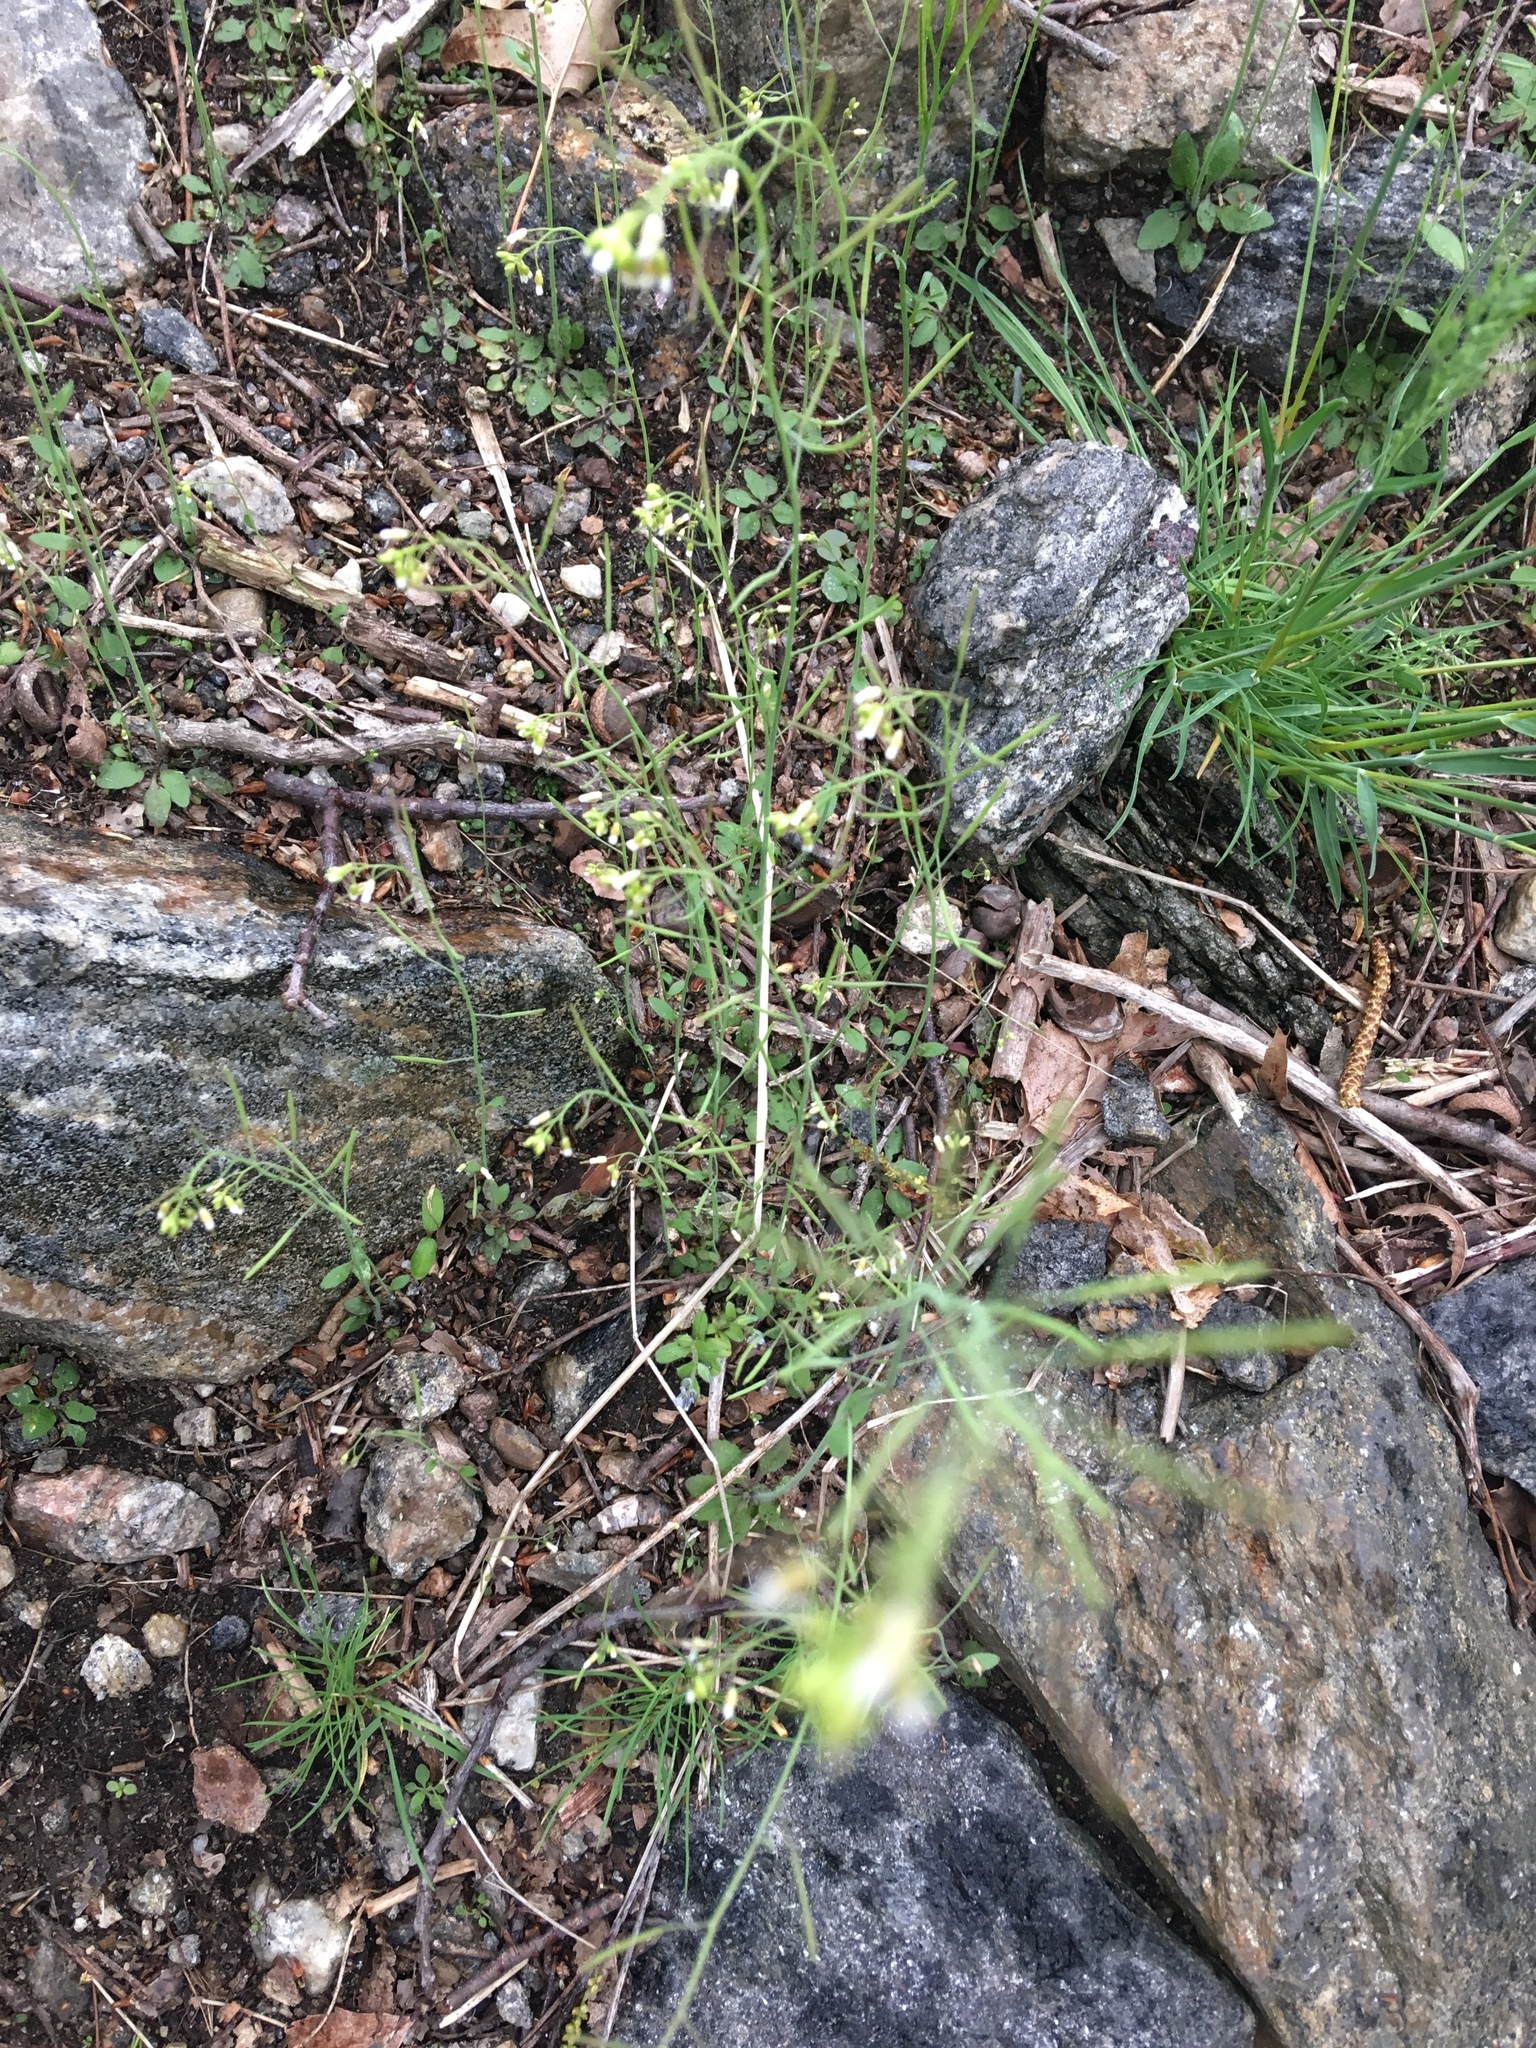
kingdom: Plantae
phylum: Tracheophyta
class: Magnoliopsida
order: Brassicales
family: Brassicaceae
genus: Arabidopsis
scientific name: Arabidopsis thaliana
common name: Thale cress
